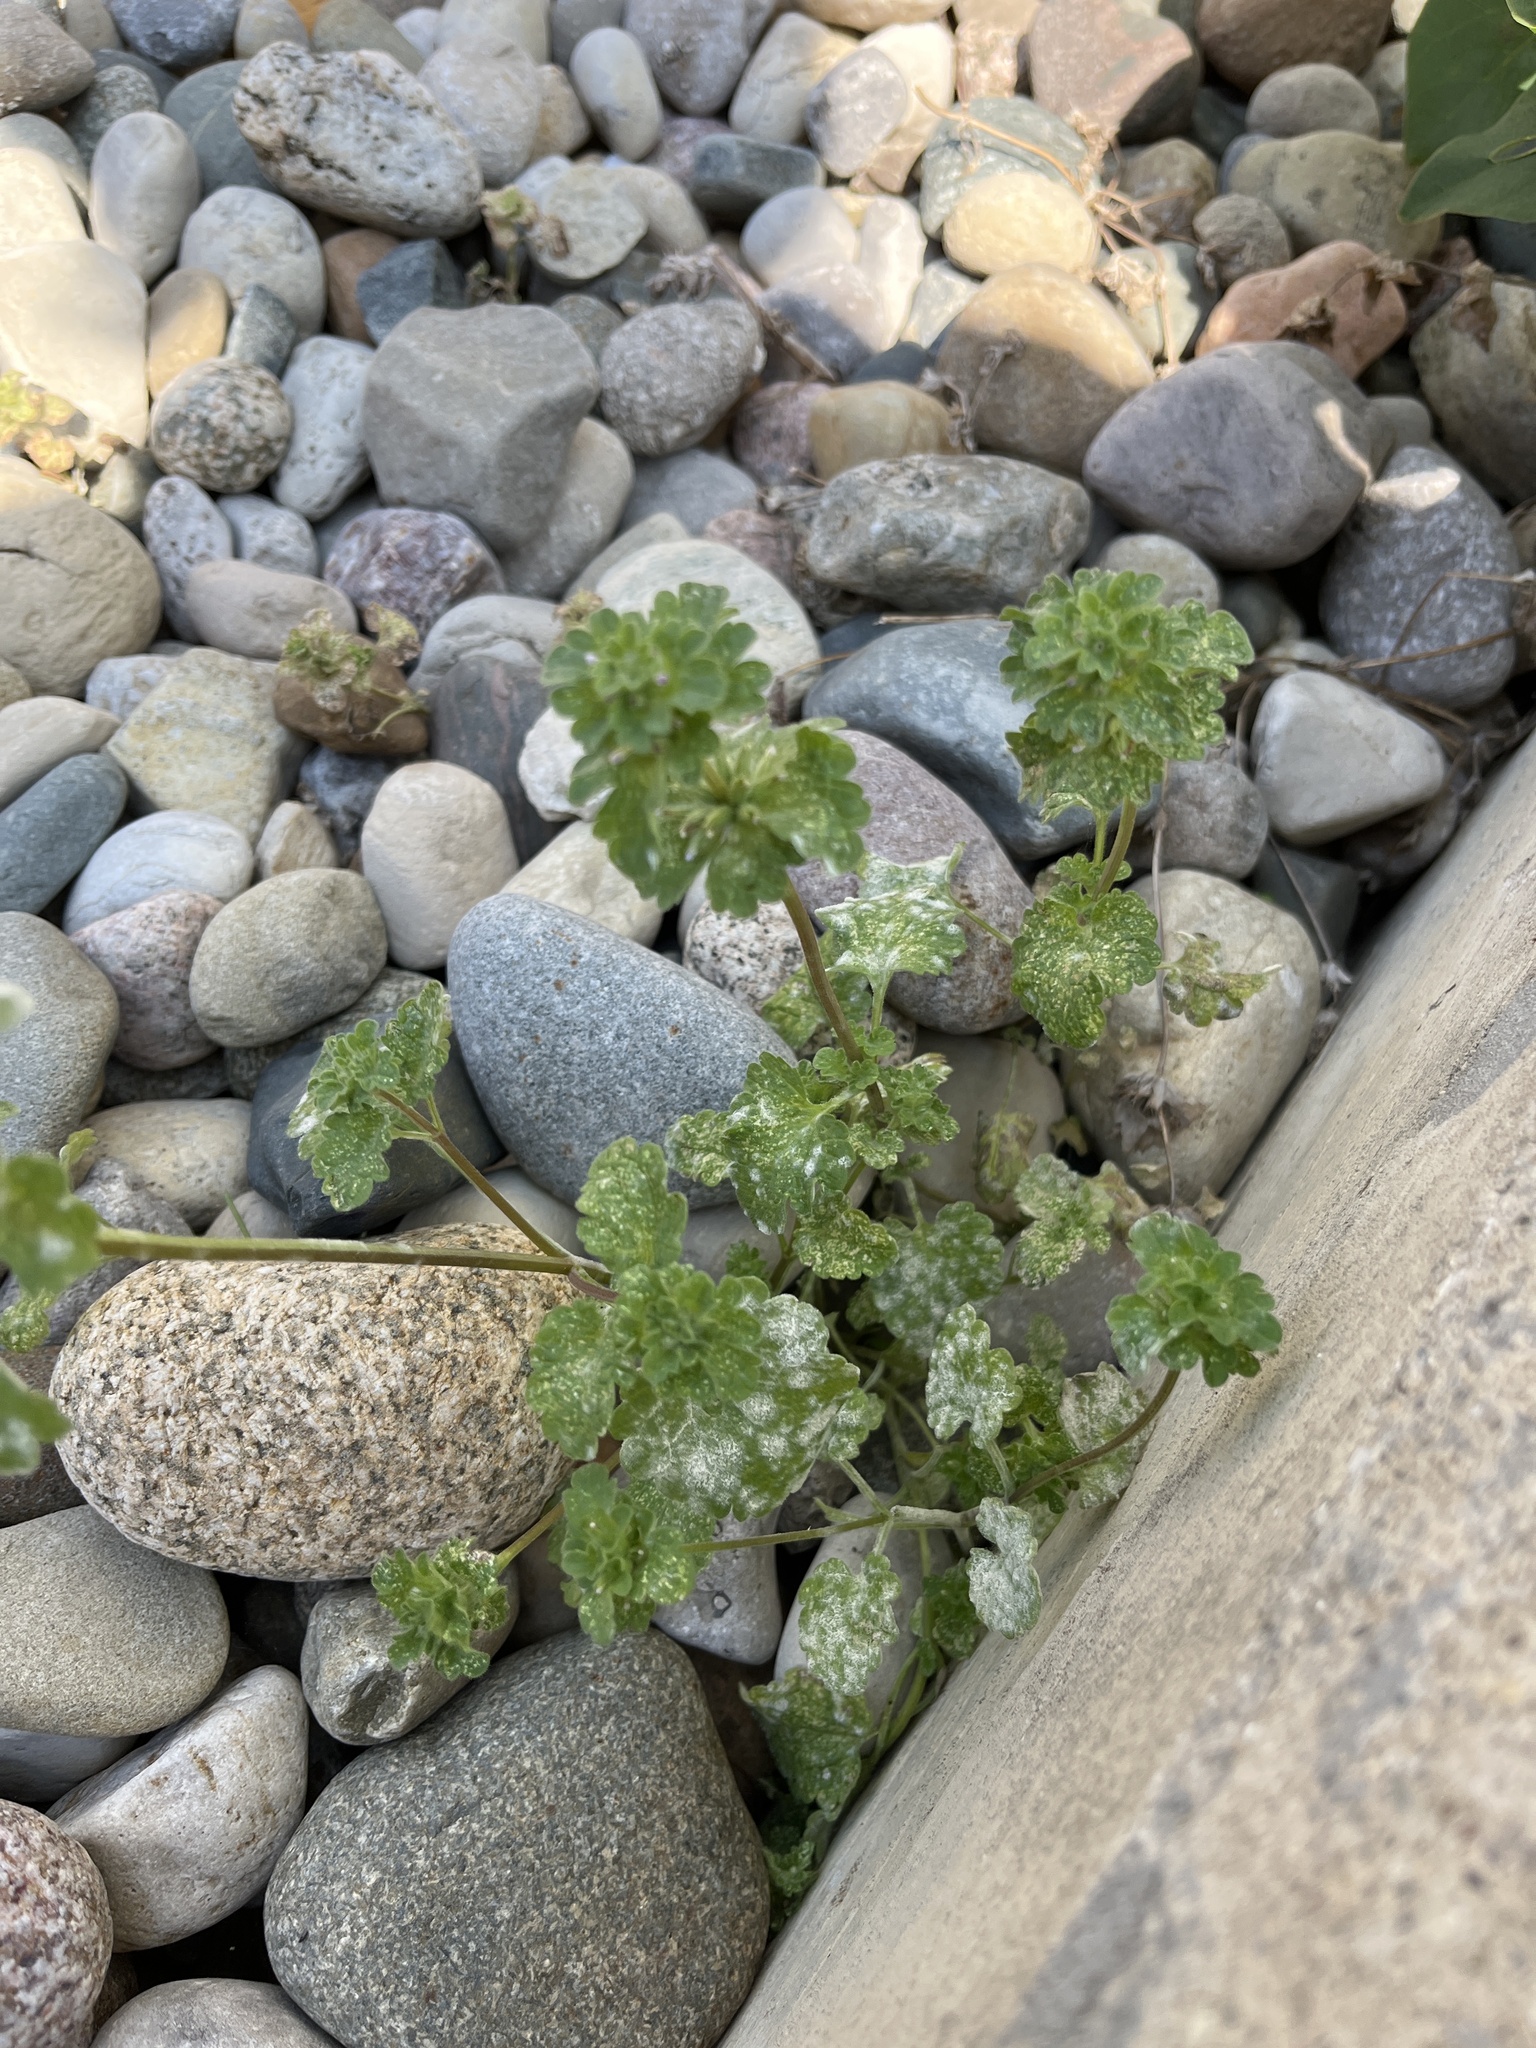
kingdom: Plantae
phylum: Tracheophyta
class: Magnoliopsida
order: Lamiales
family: Lamiaceae
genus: Lamium
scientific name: Lamium amplexicaule
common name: Henbit dead-nettle
